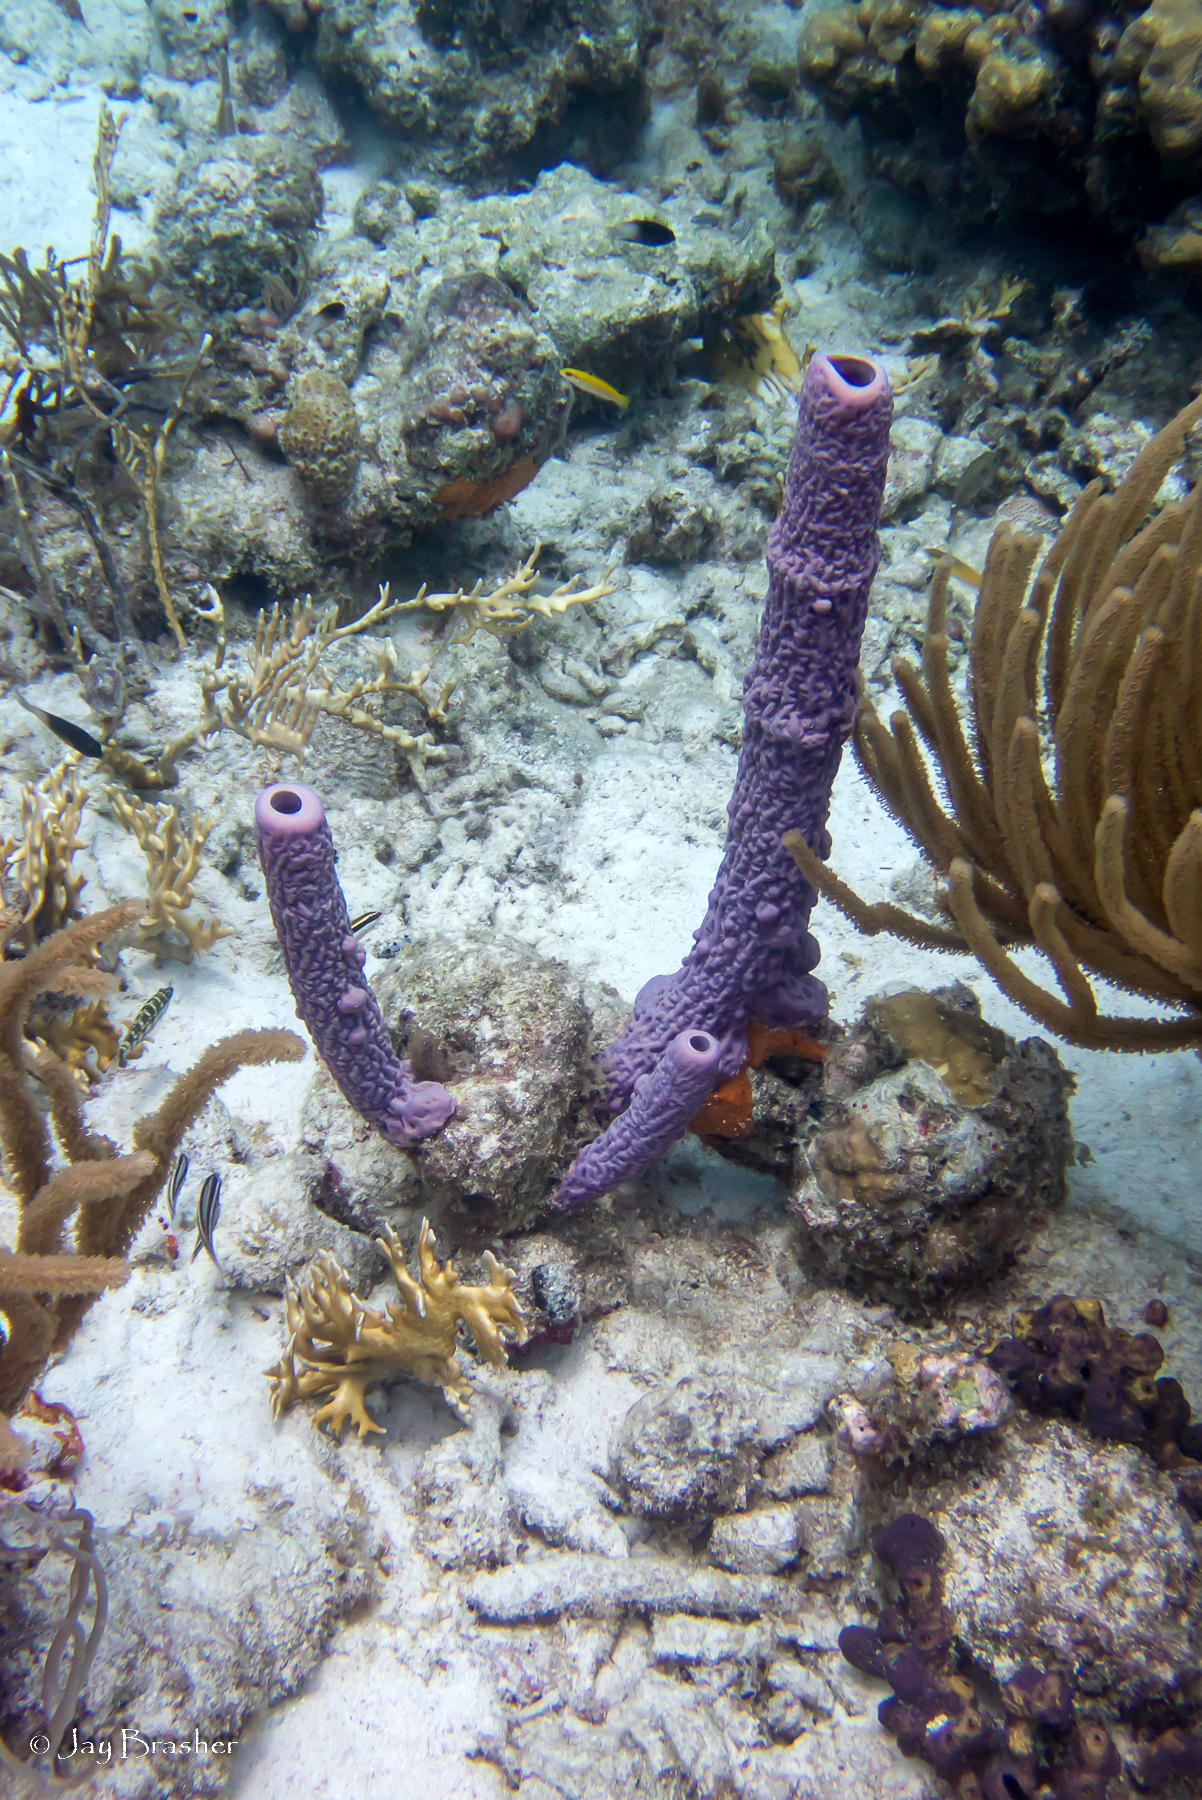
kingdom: Animalia
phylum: Porifera
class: Demospongiae
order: Verongiida
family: Aplysinidae
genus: Aplysina
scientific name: Aplysina archeri
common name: Stove-pipe sponge
